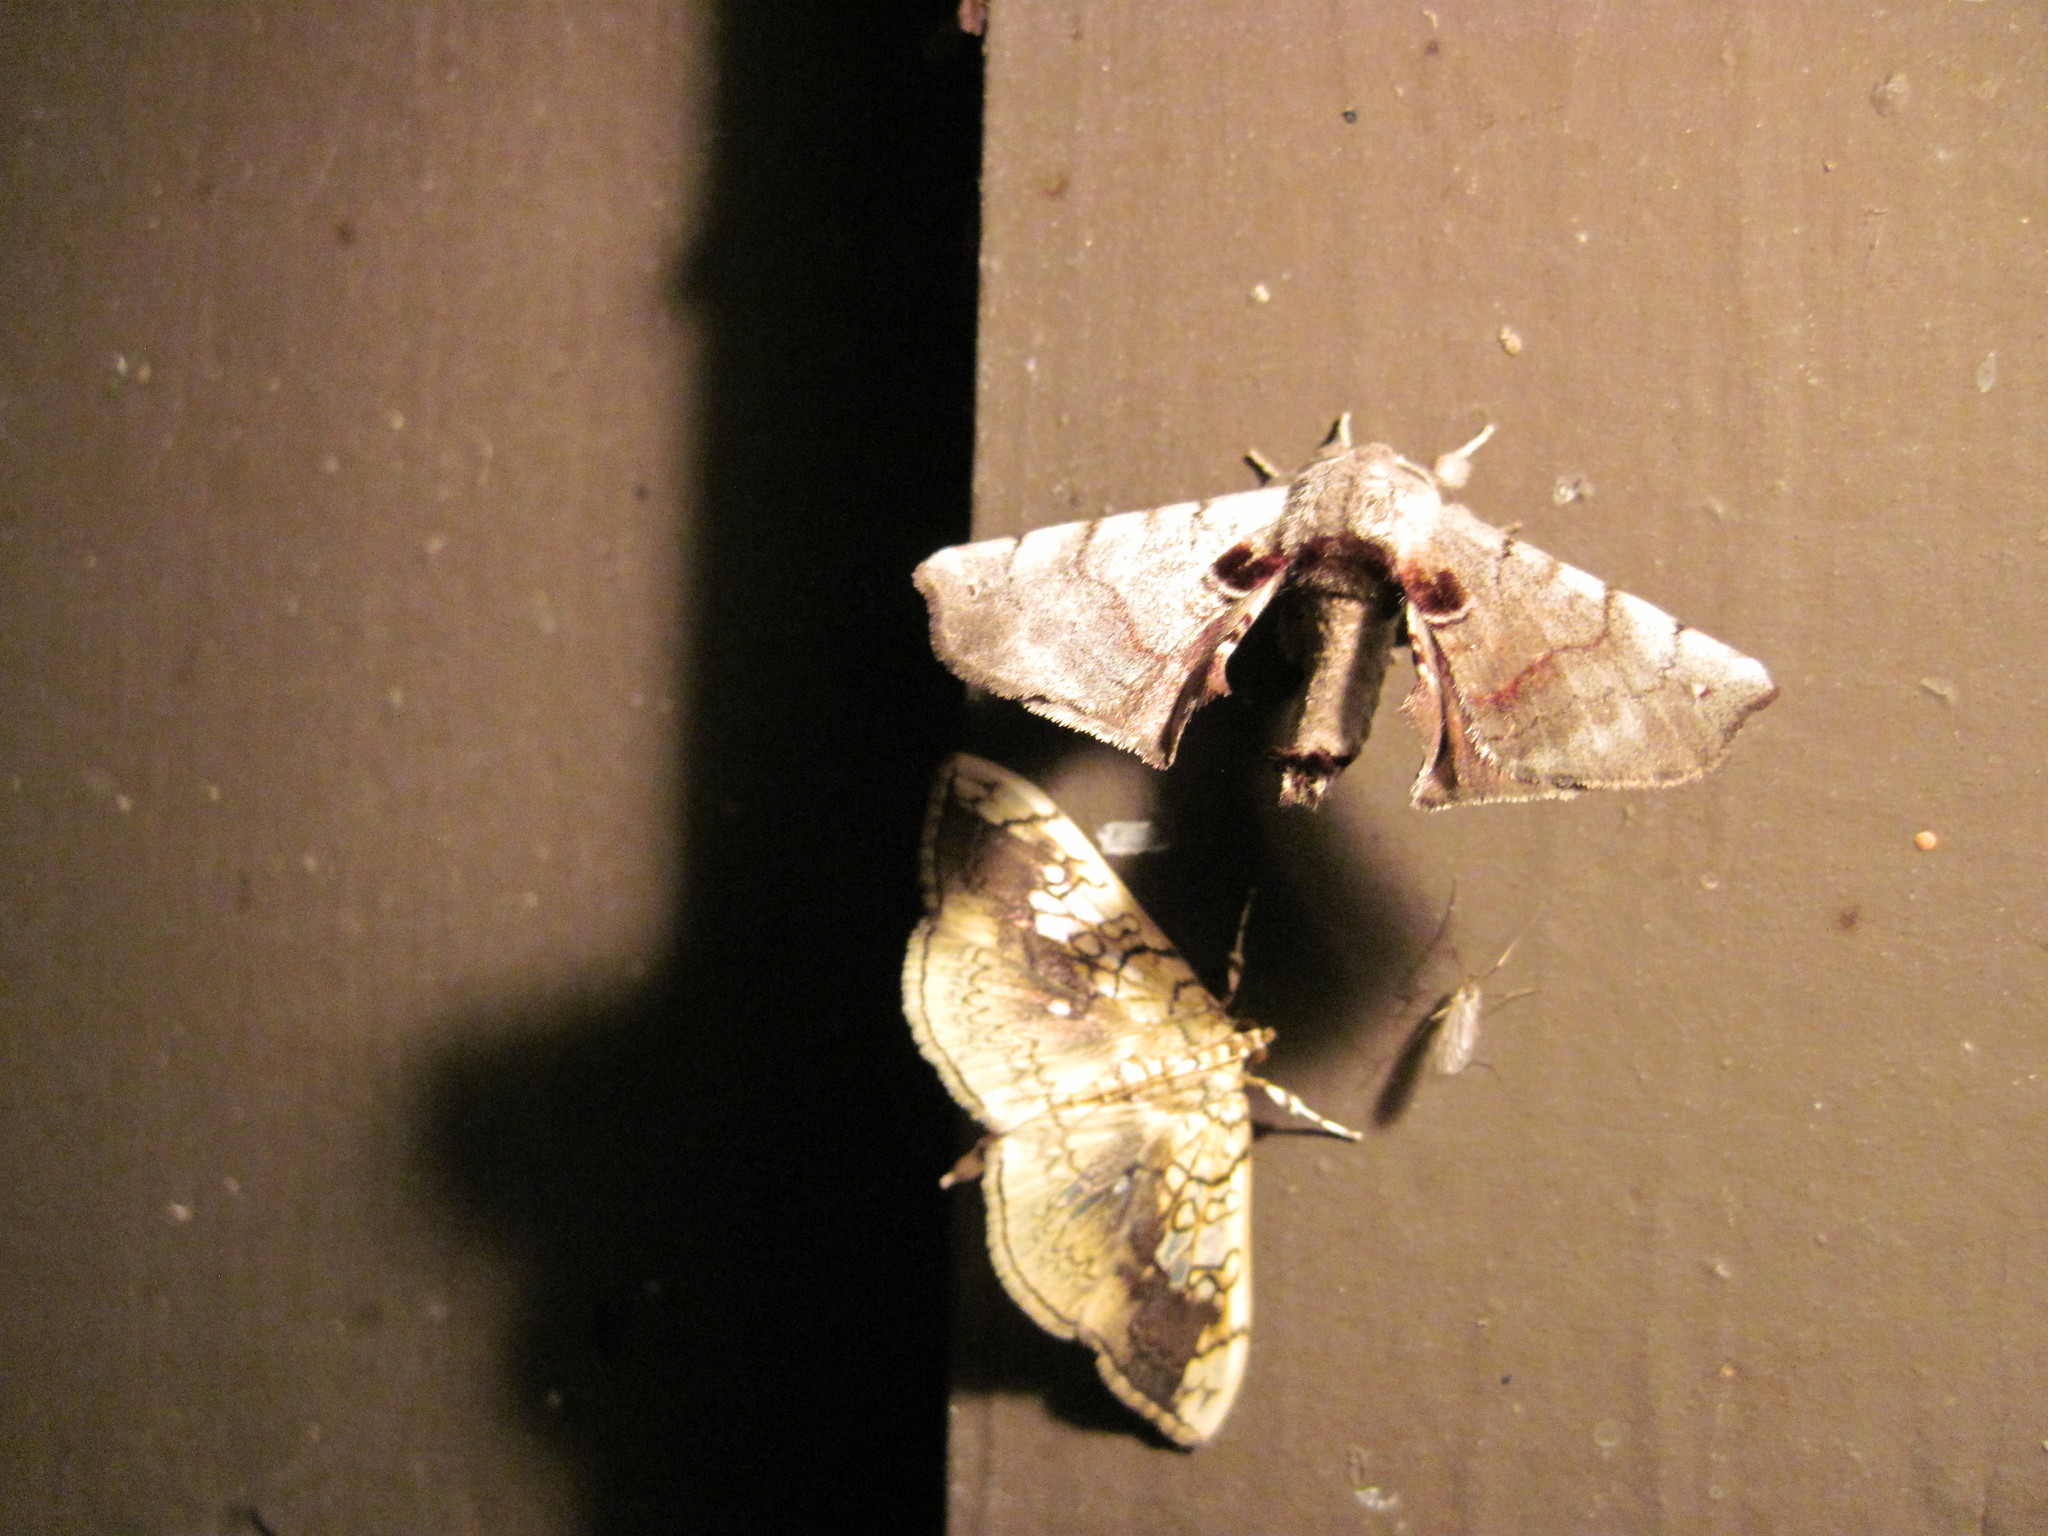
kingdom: Animalia
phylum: Arthropoda
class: Insecta
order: Lepidoptera
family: Apatelodidae
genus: Hygrochroa
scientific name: Hygrochroa Apatelodes torrefacta
